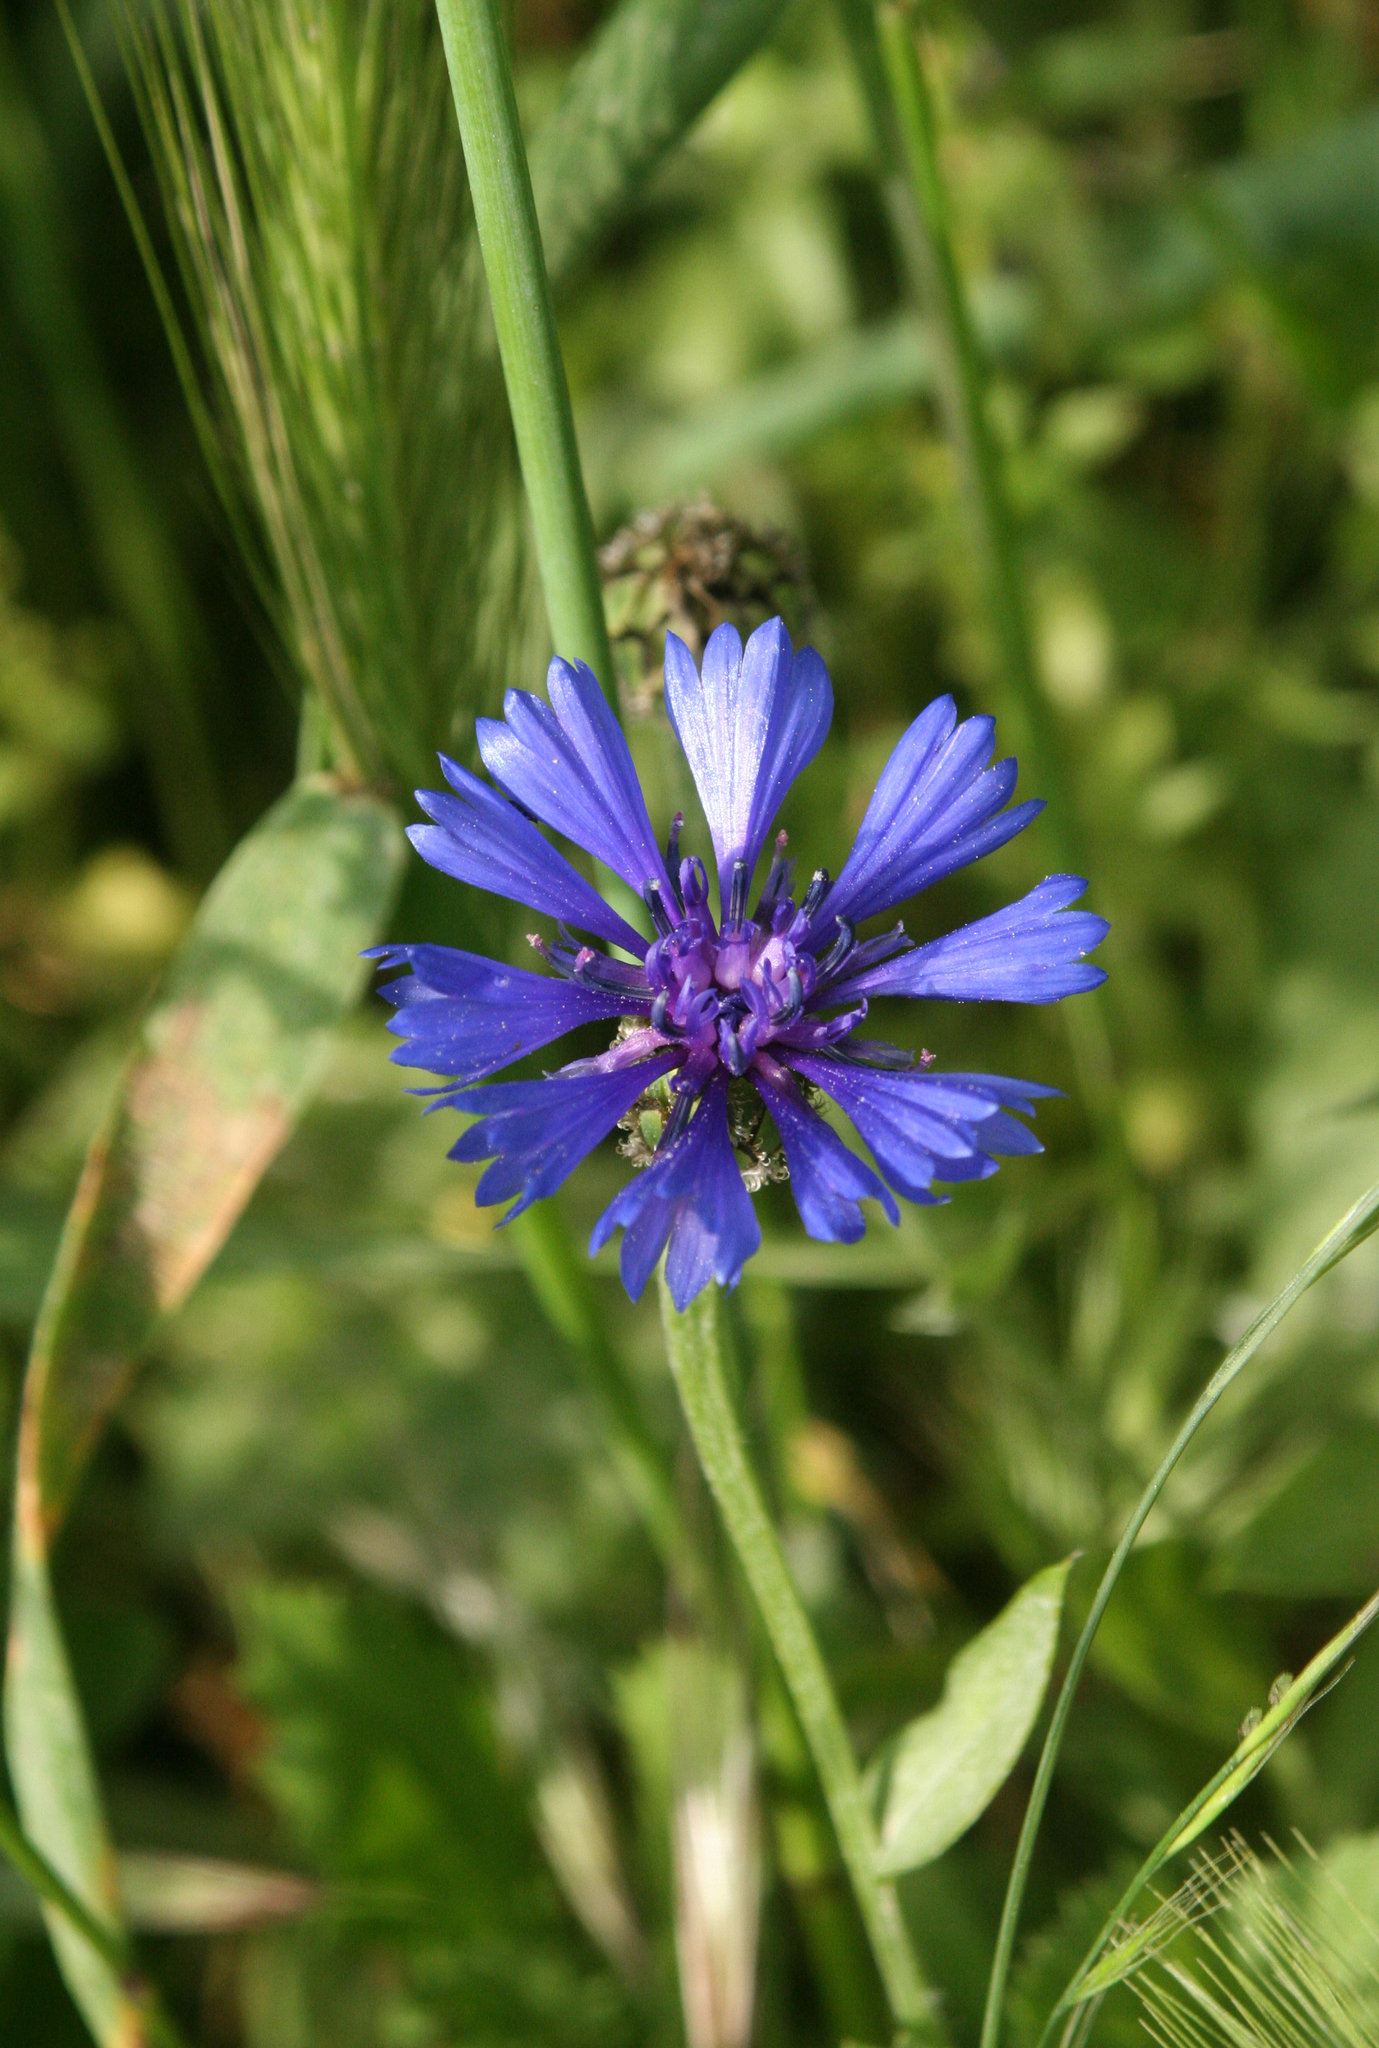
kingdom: Plantae
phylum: Tracheophyta
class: Magnoliopsida
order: Asterales
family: Asteraceae
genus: Centaurea
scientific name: Centaurea cyanoides
